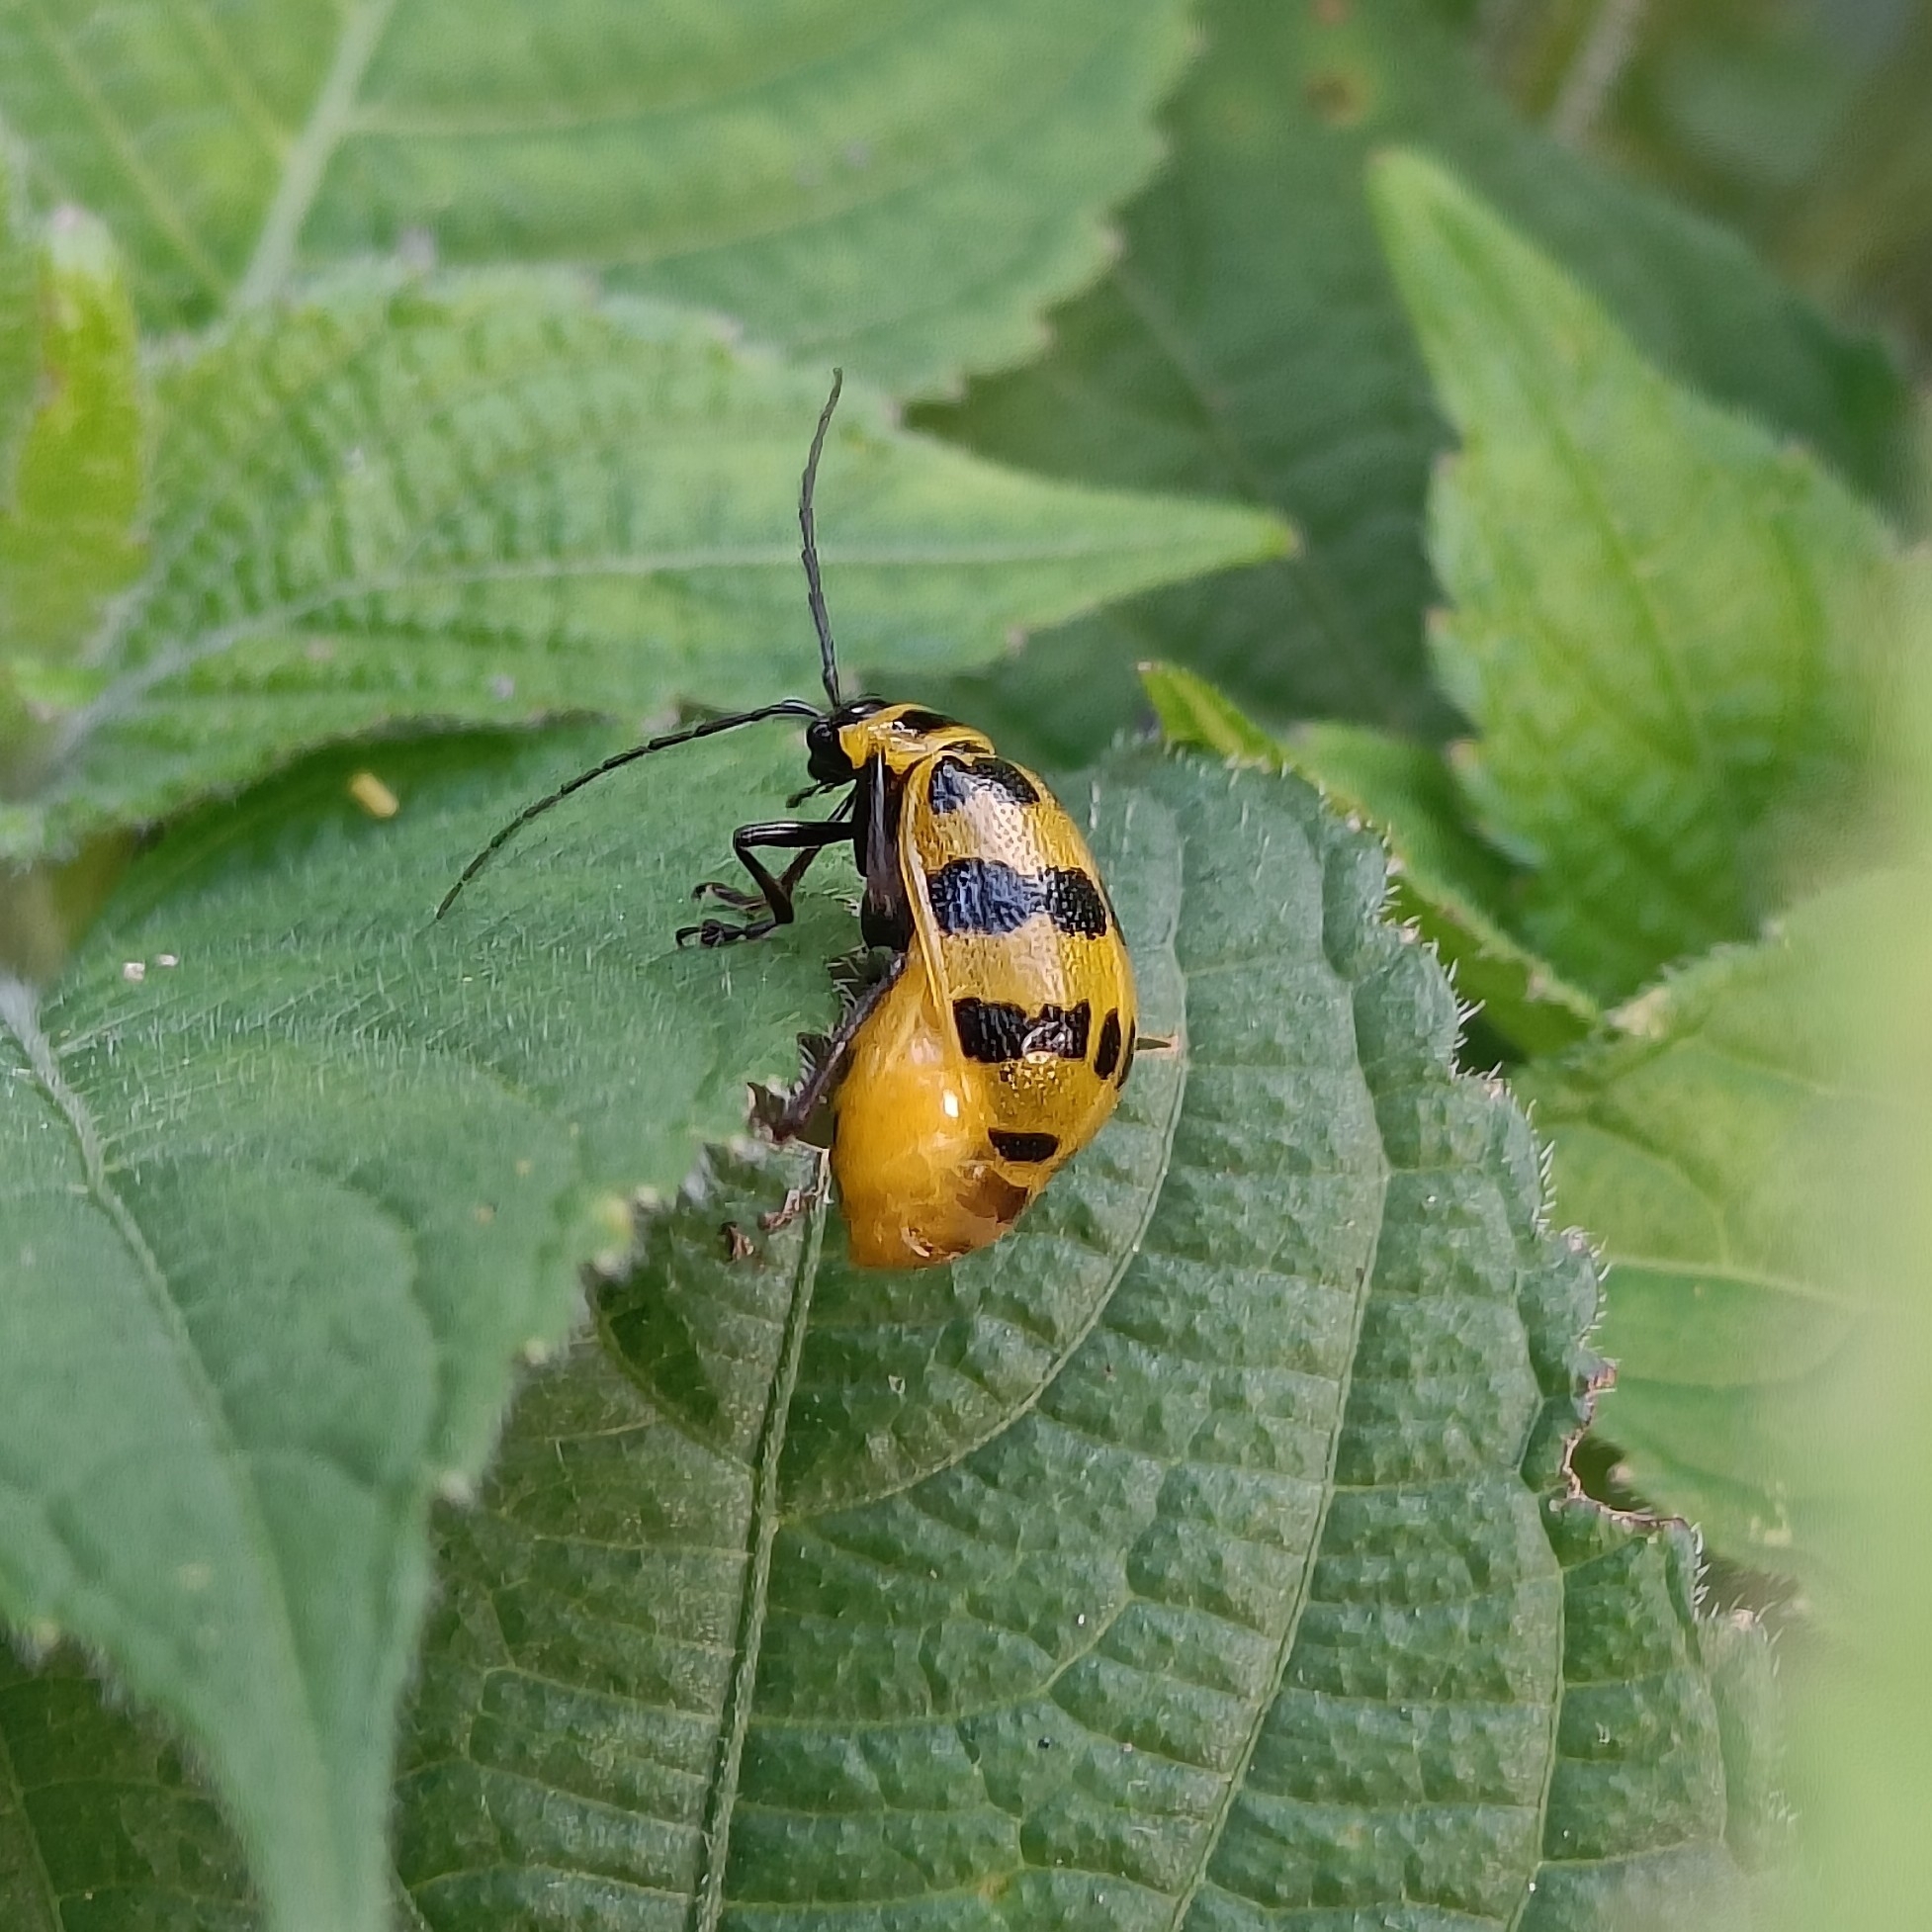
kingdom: Animalia
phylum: Arthropoda
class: Insecta
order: Coleoptera
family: Chrysomelidae
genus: Meristata
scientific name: Meristata quadrifasciata
